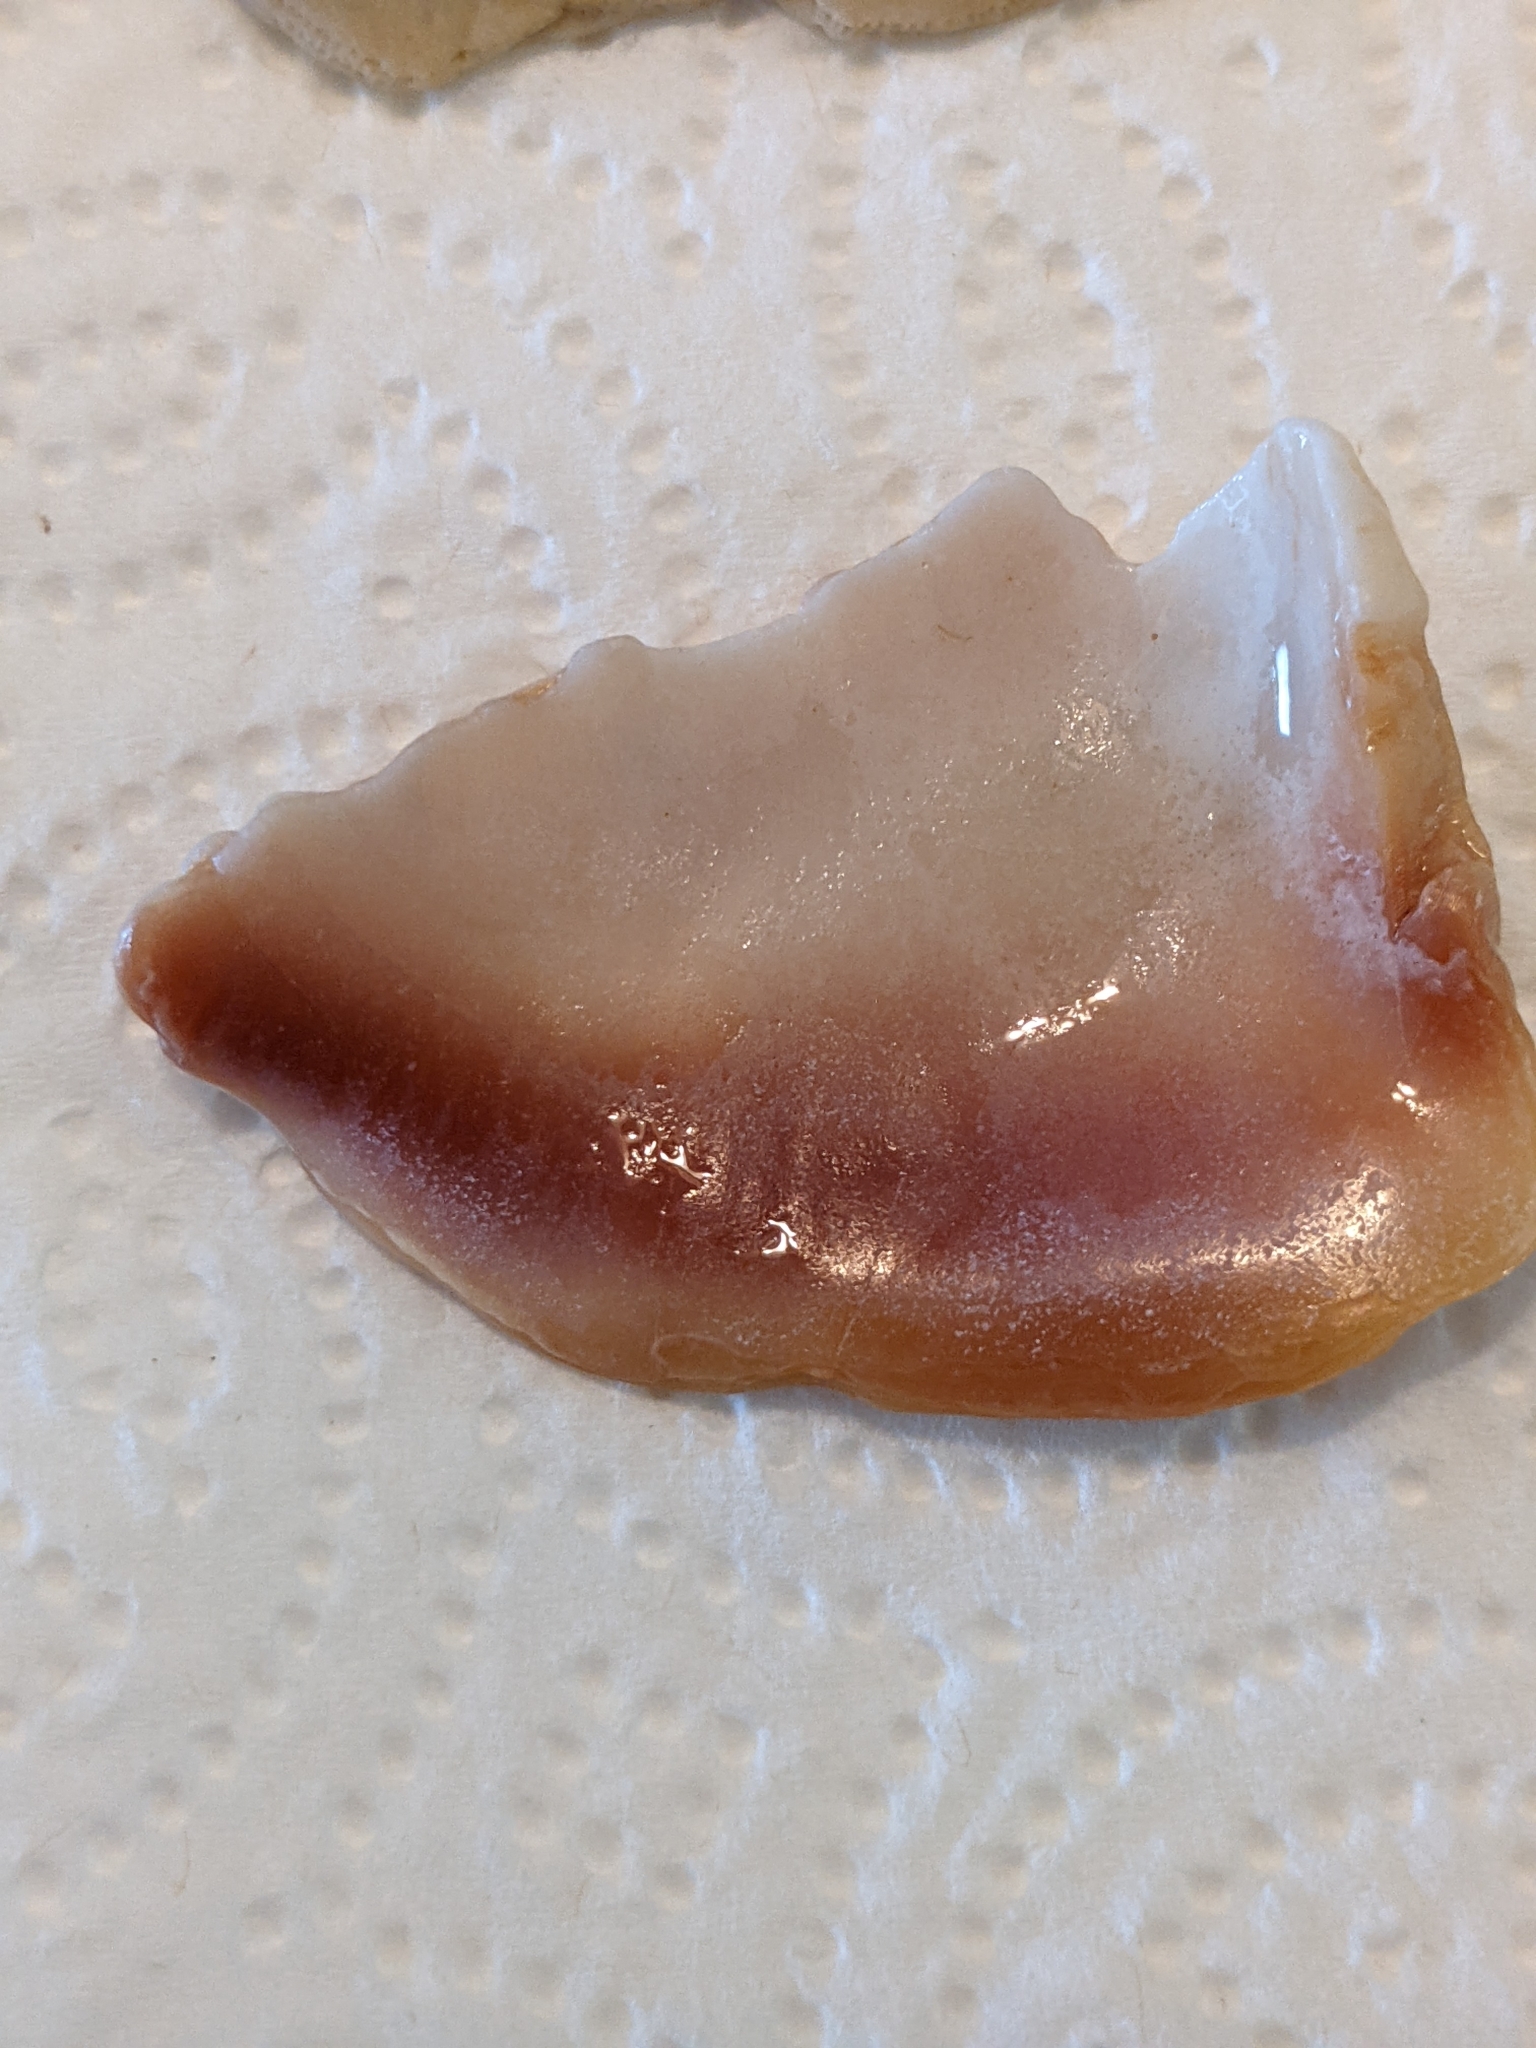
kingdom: Animalia
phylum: Mollusca
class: Gastropoda
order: Littorinimorpha
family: Strombidae
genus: Strombus
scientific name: Strombus alatus
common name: Florida fighting conch
